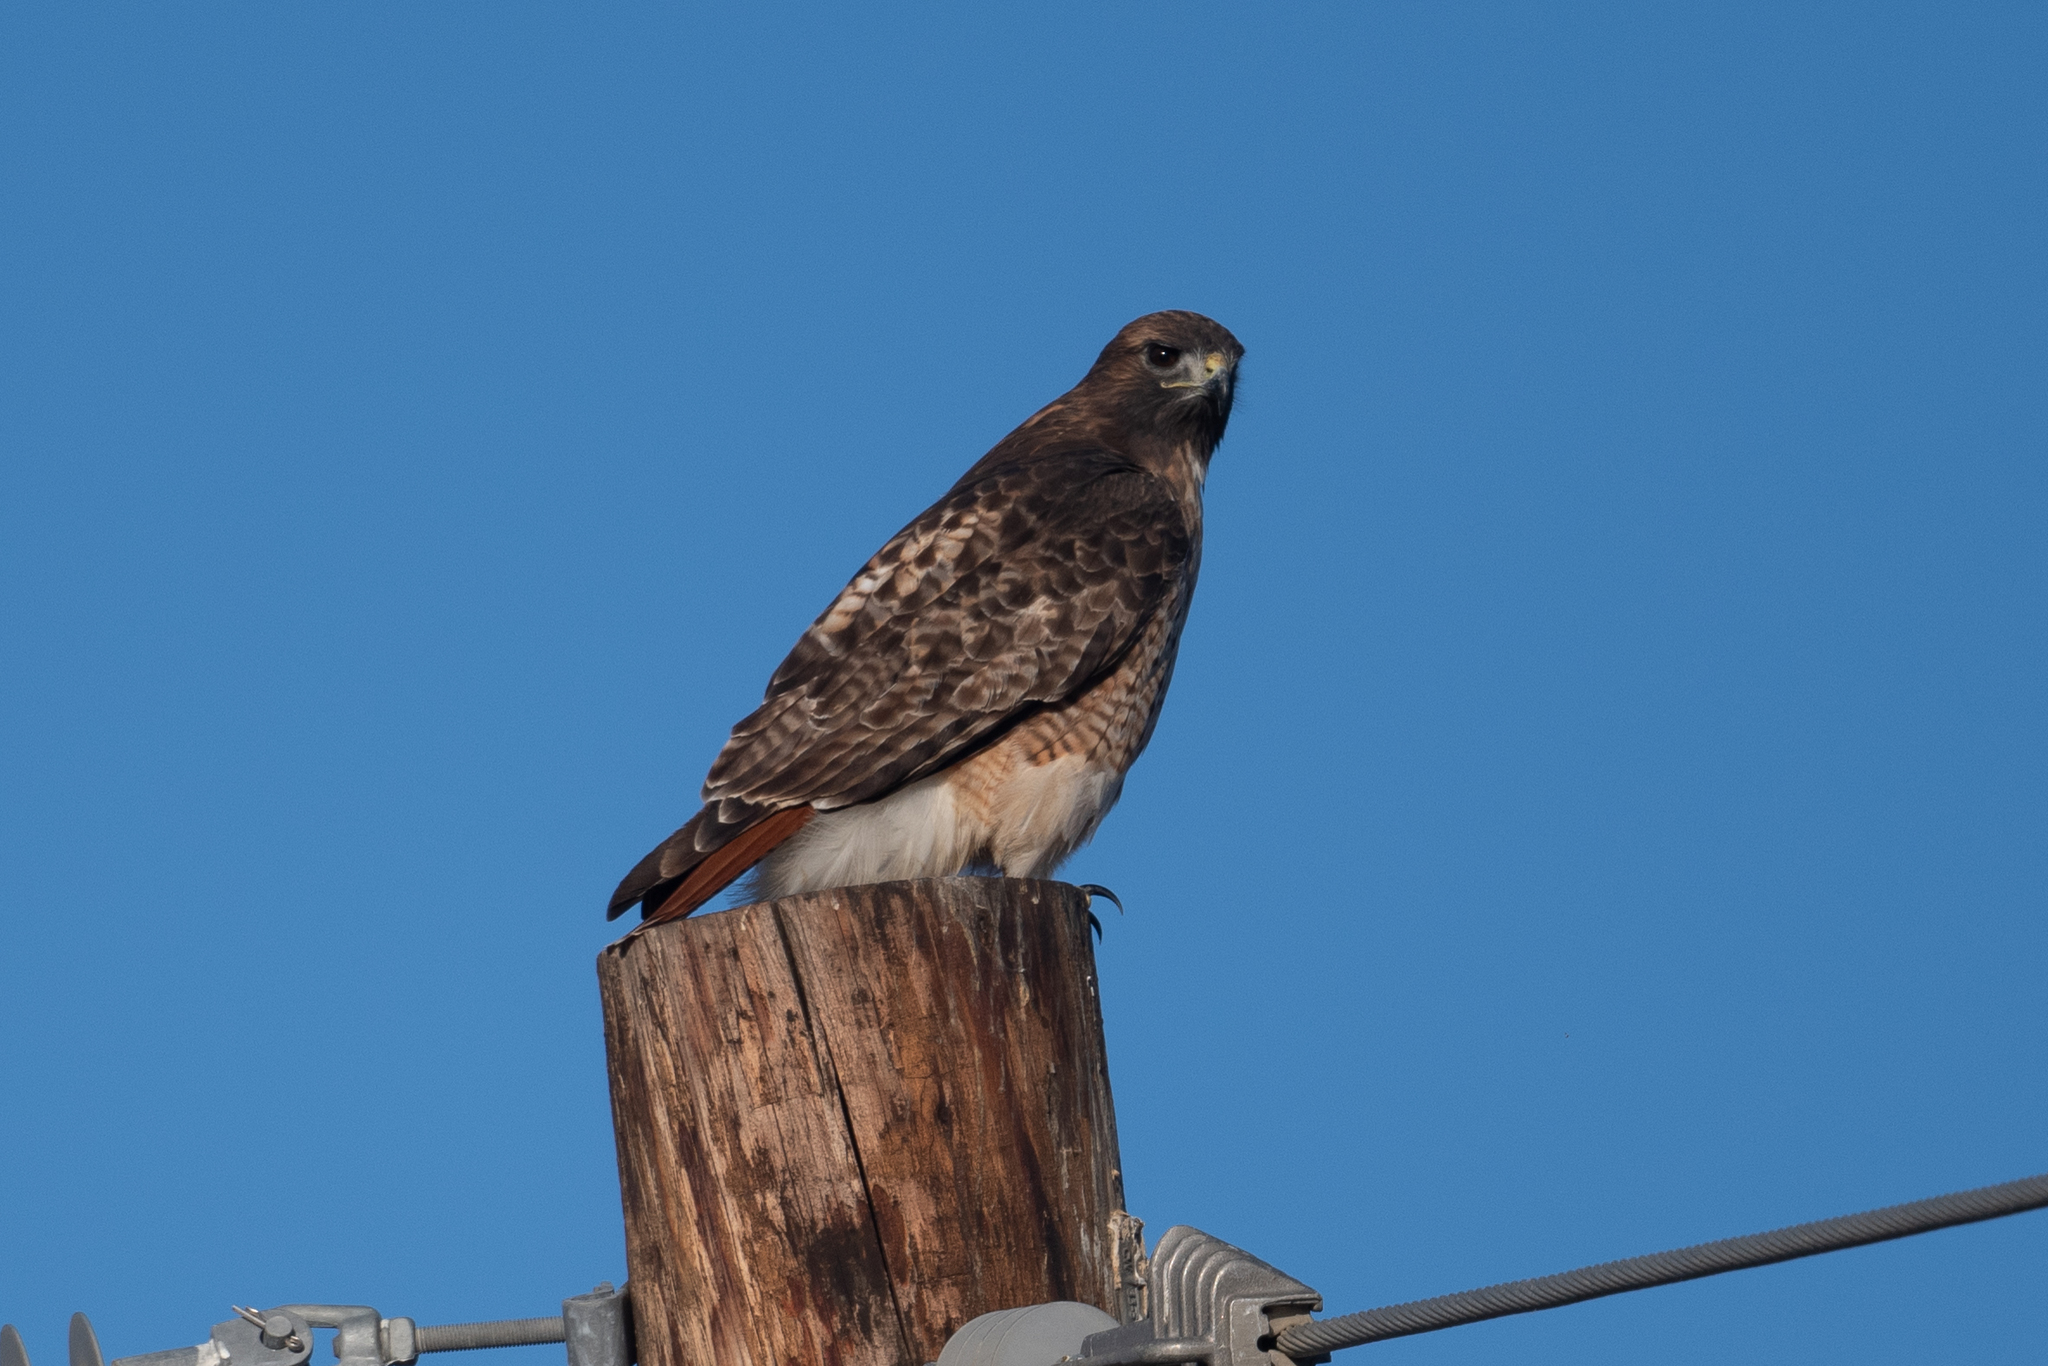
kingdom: Animalia
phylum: Chordata
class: Aves
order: Accipitriformes
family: Accipitridae
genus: Buteo
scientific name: Buteo jamaicensis
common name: Red-tailed hawk
